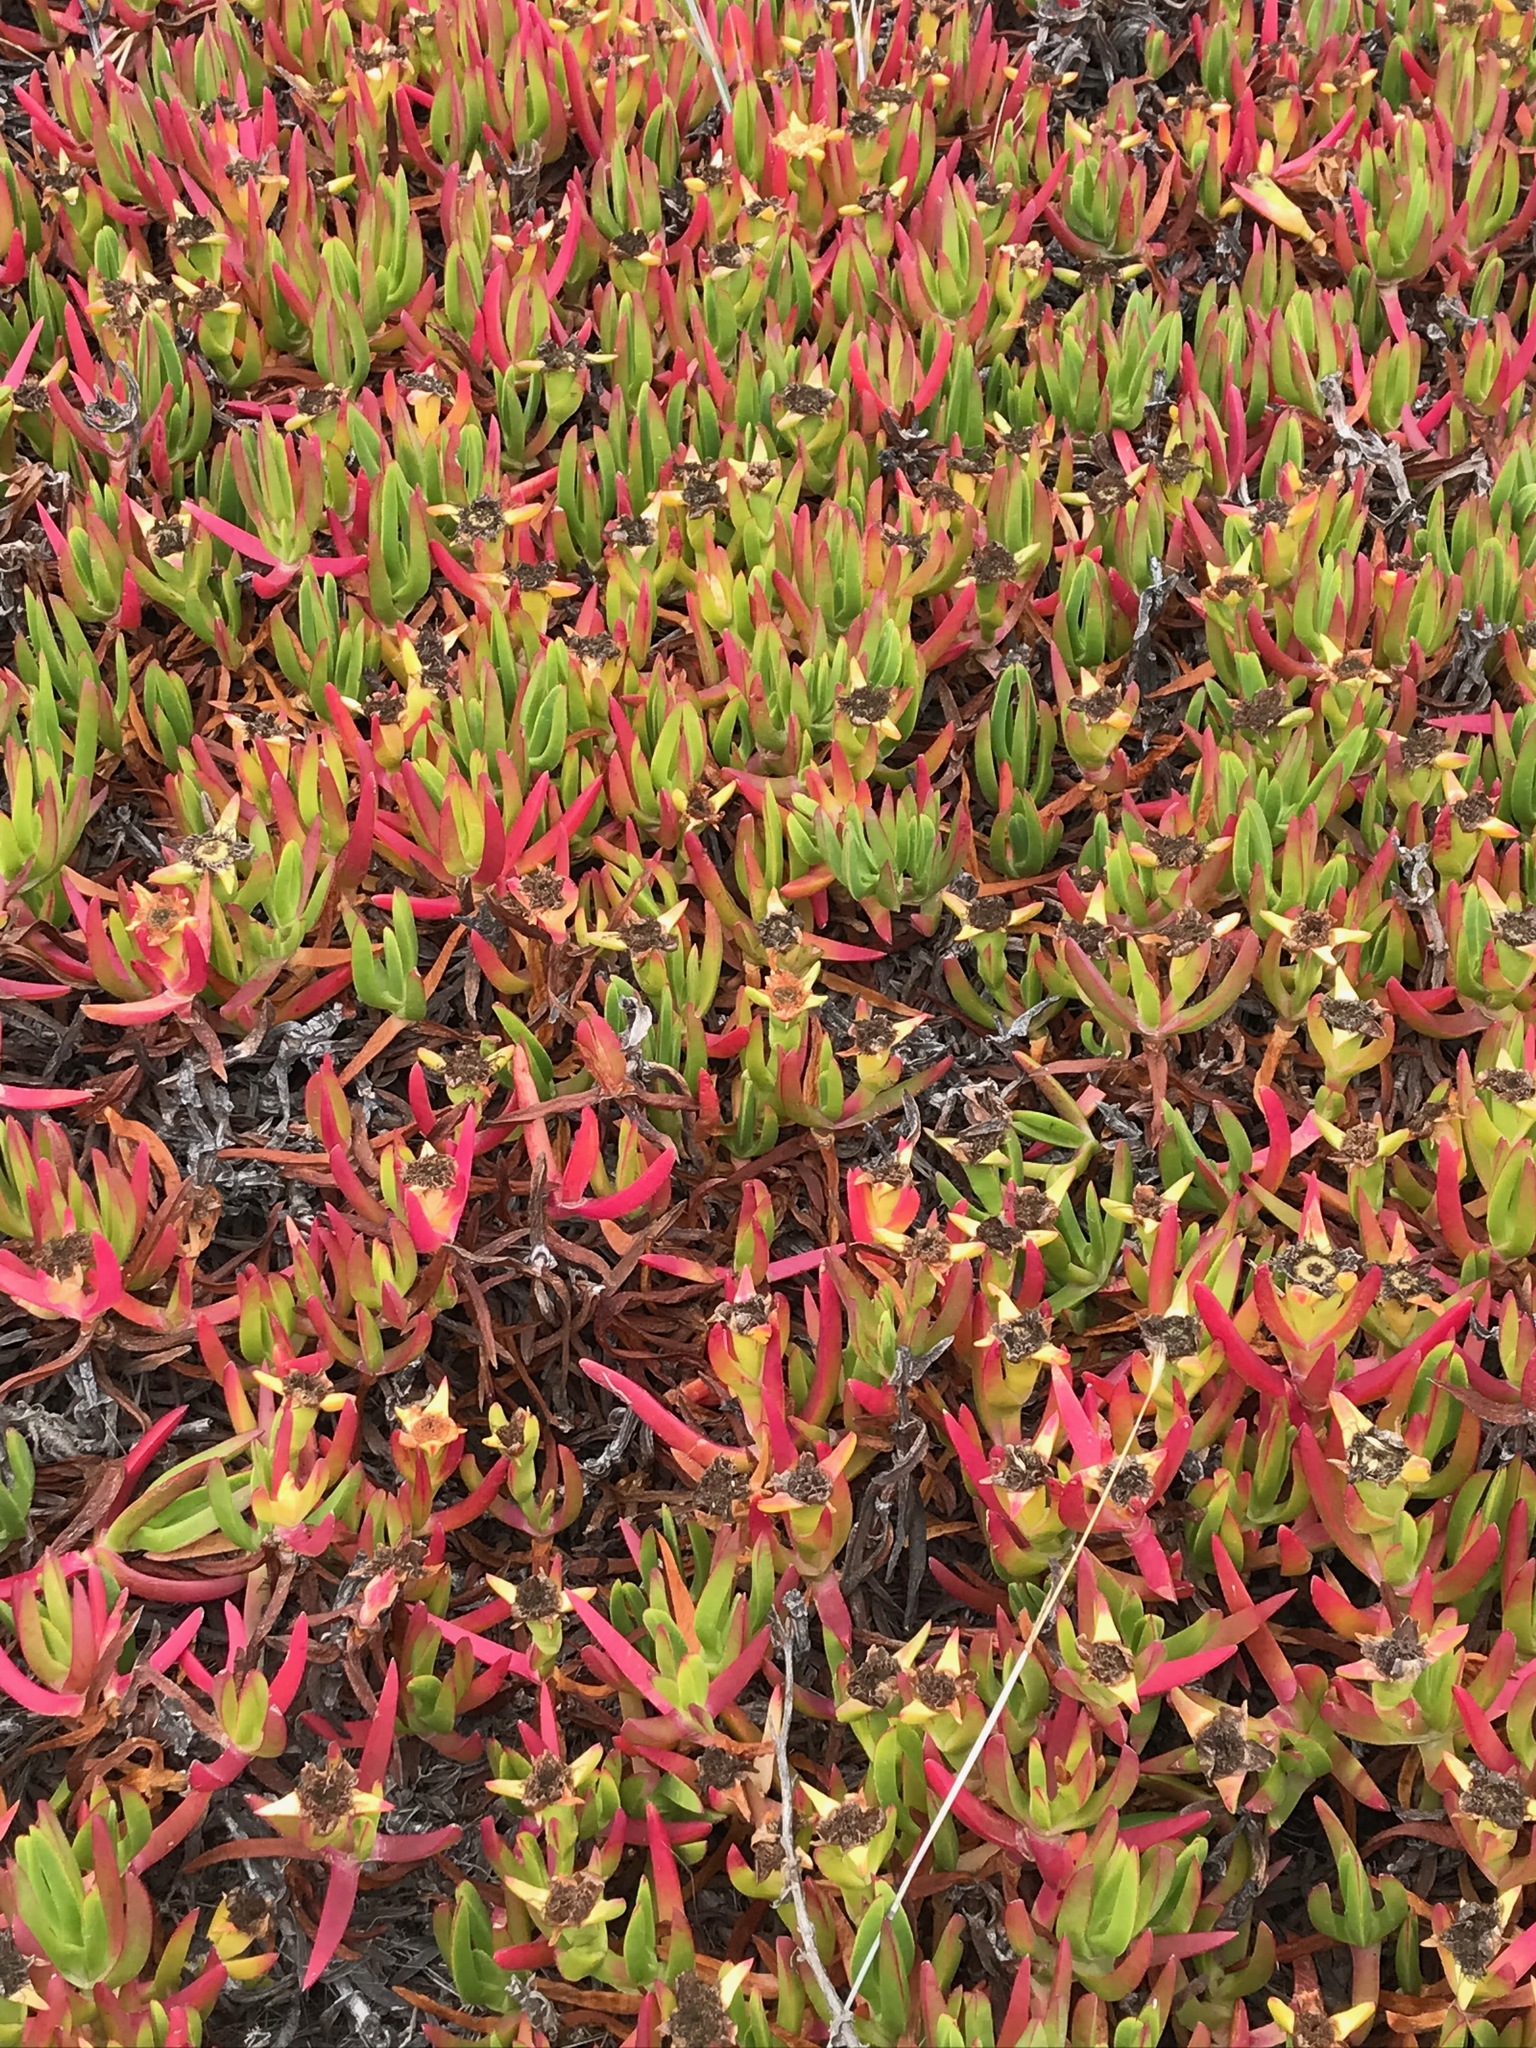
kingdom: Plantae
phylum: Tracheophyta
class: Magnoliopsida
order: Caryophyllales
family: Aizoaceae
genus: Carpobrotus
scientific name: Carpobrotus chilensis
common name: Sea fig
